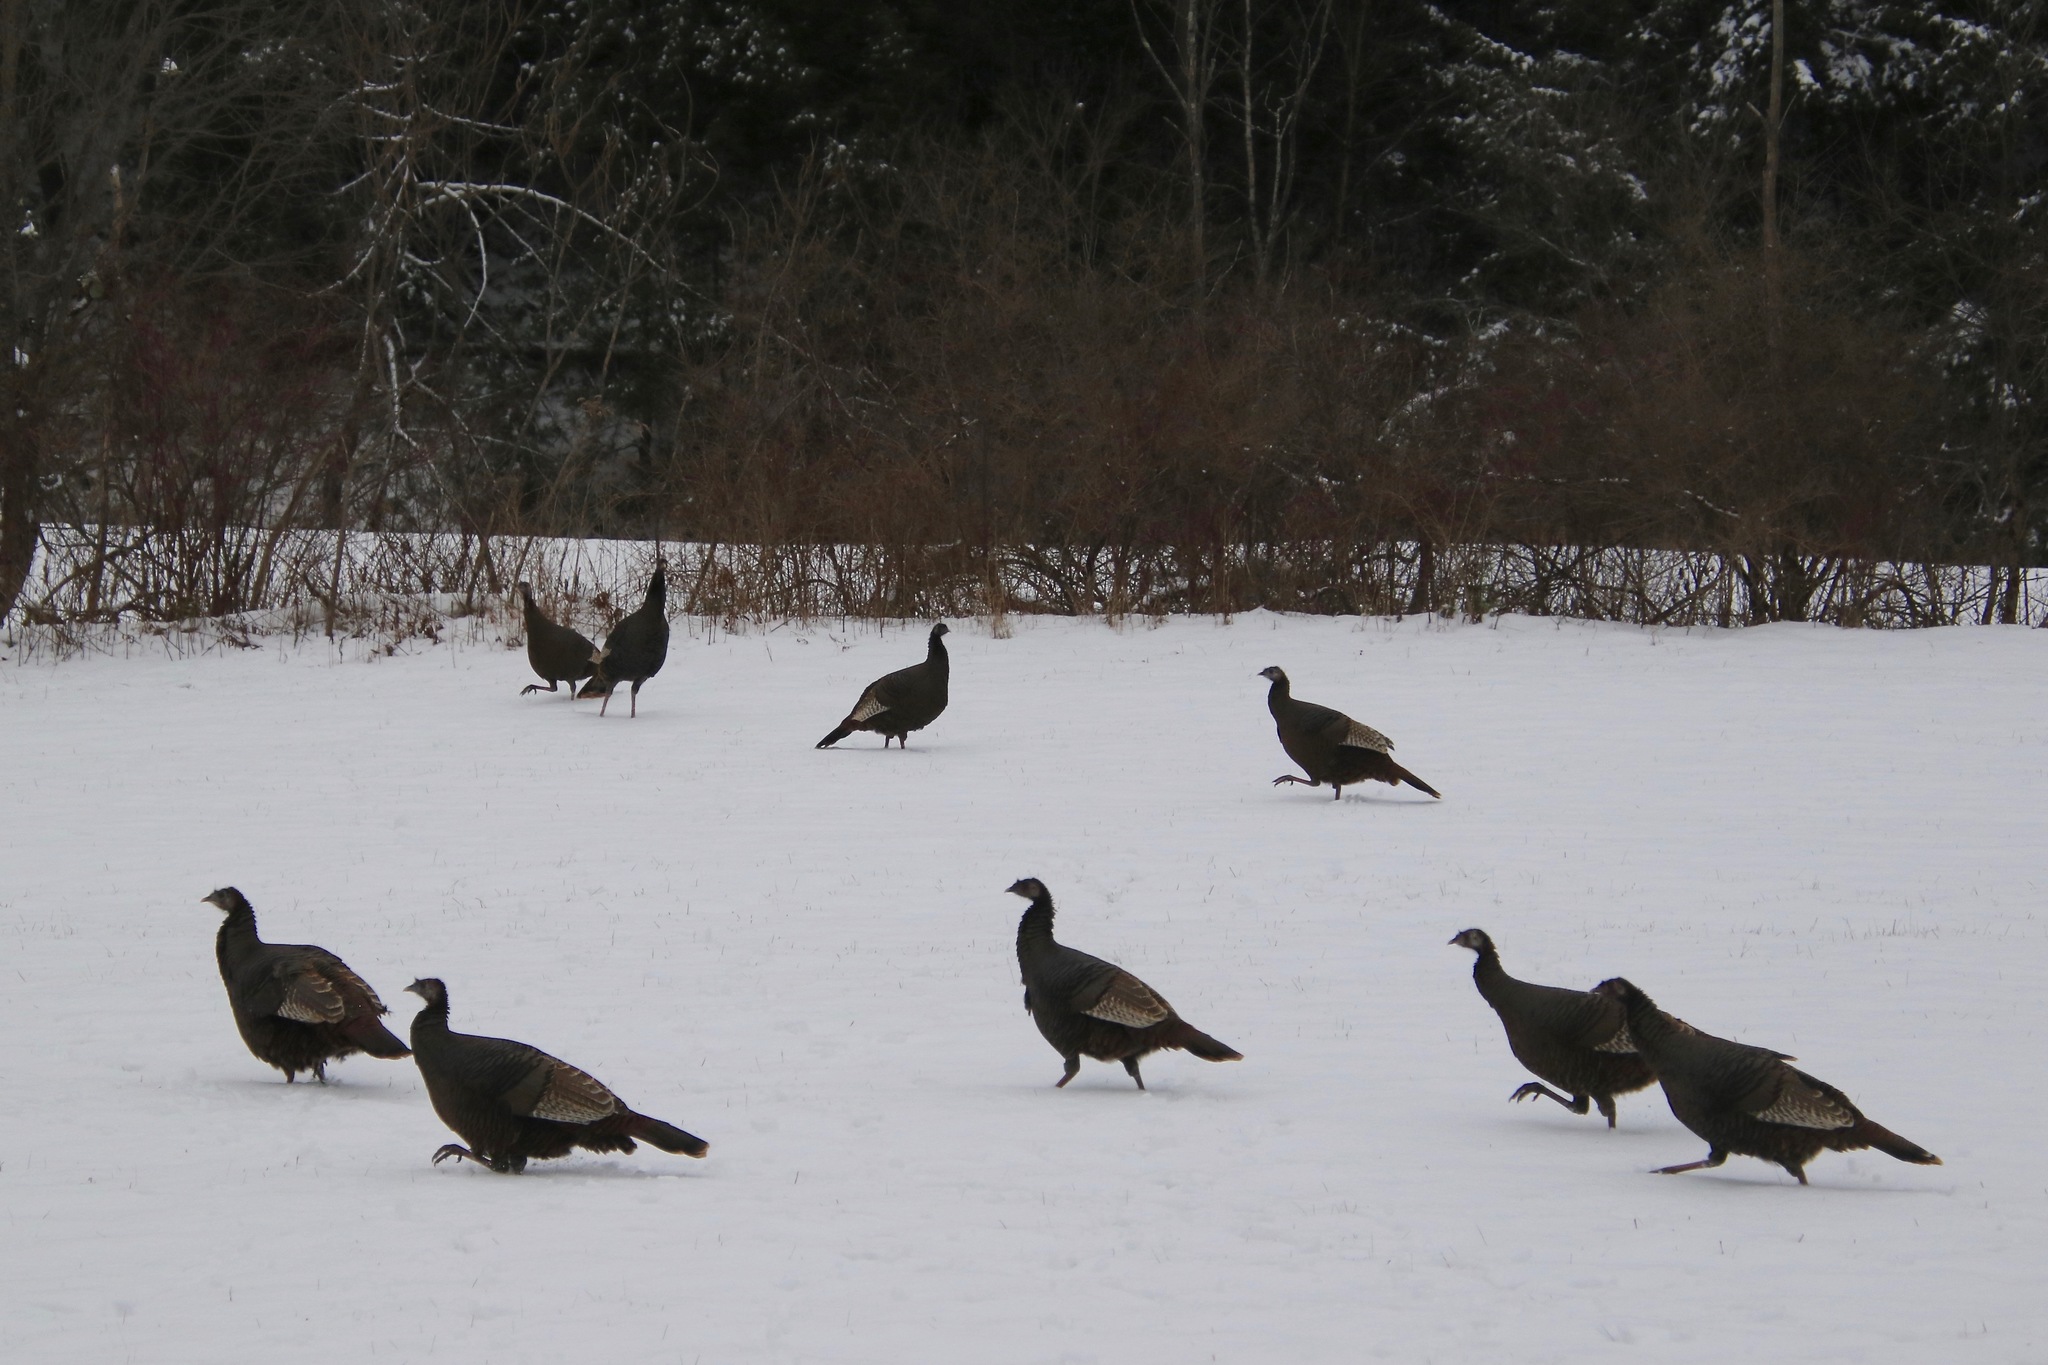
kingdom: Animalia
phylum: Chordata
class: Aves
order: Galliformes
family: Phasianidae
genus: Meleagris
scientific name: Meleagris gallopavo
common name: Wild turkey
